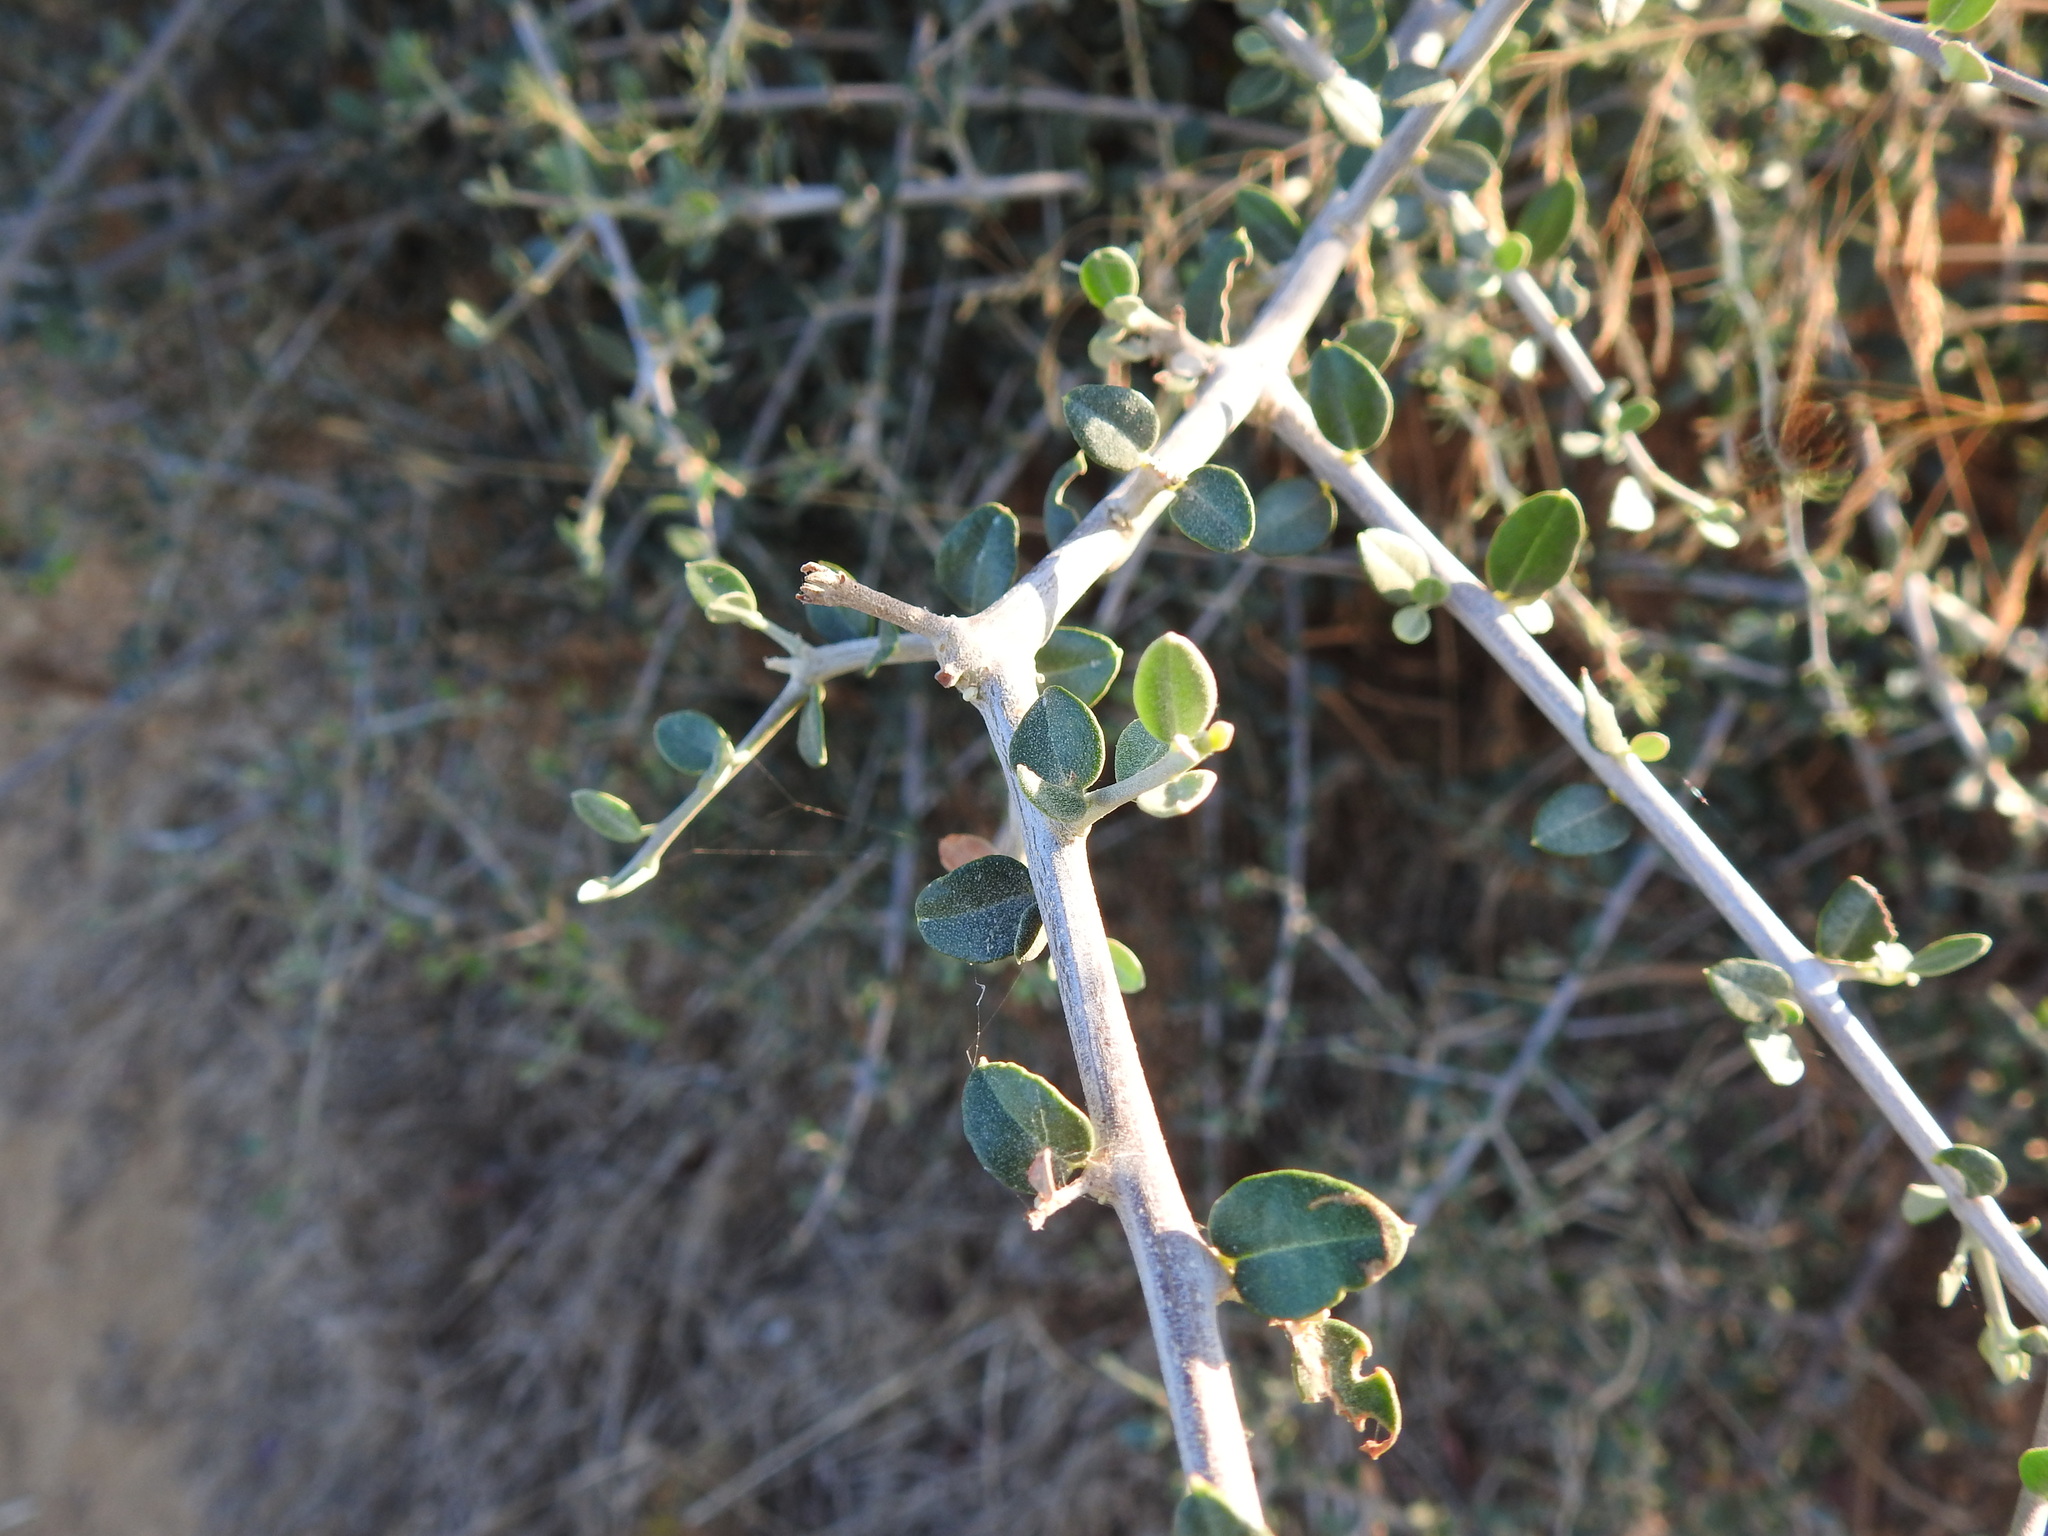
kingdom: Plantae
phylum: Tracheophyta
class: Magnoliopsida
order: Lamiales
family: Oleaceae
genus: Olea
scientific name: Olea europaea
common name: Olive
